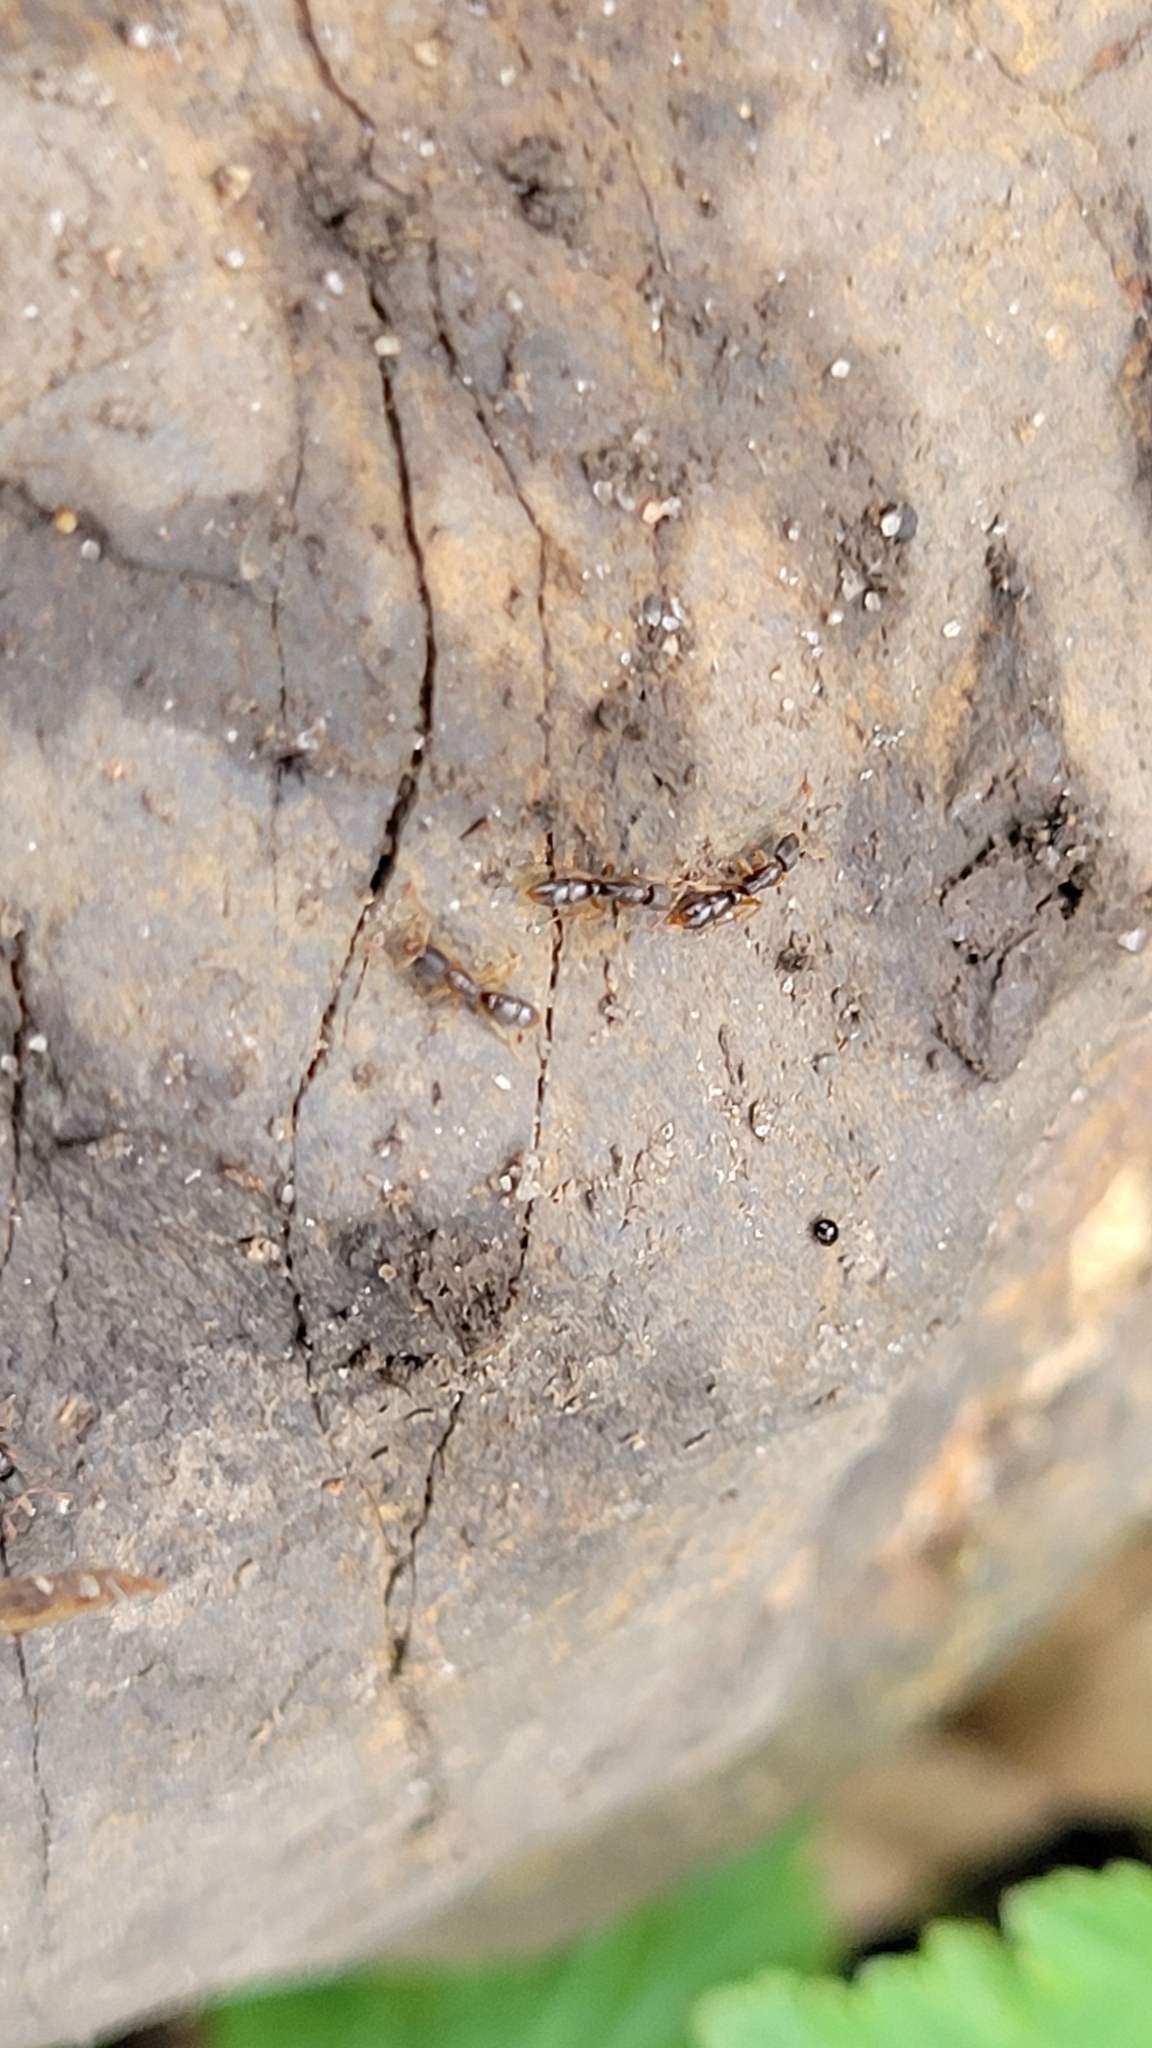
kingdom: Animalia
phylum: Arthropoda
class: Insecta
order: Hymenoptera
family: Formicidae
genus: Ponera
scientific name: Ponera pennsylvanica
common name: Pennsylvania ponera
